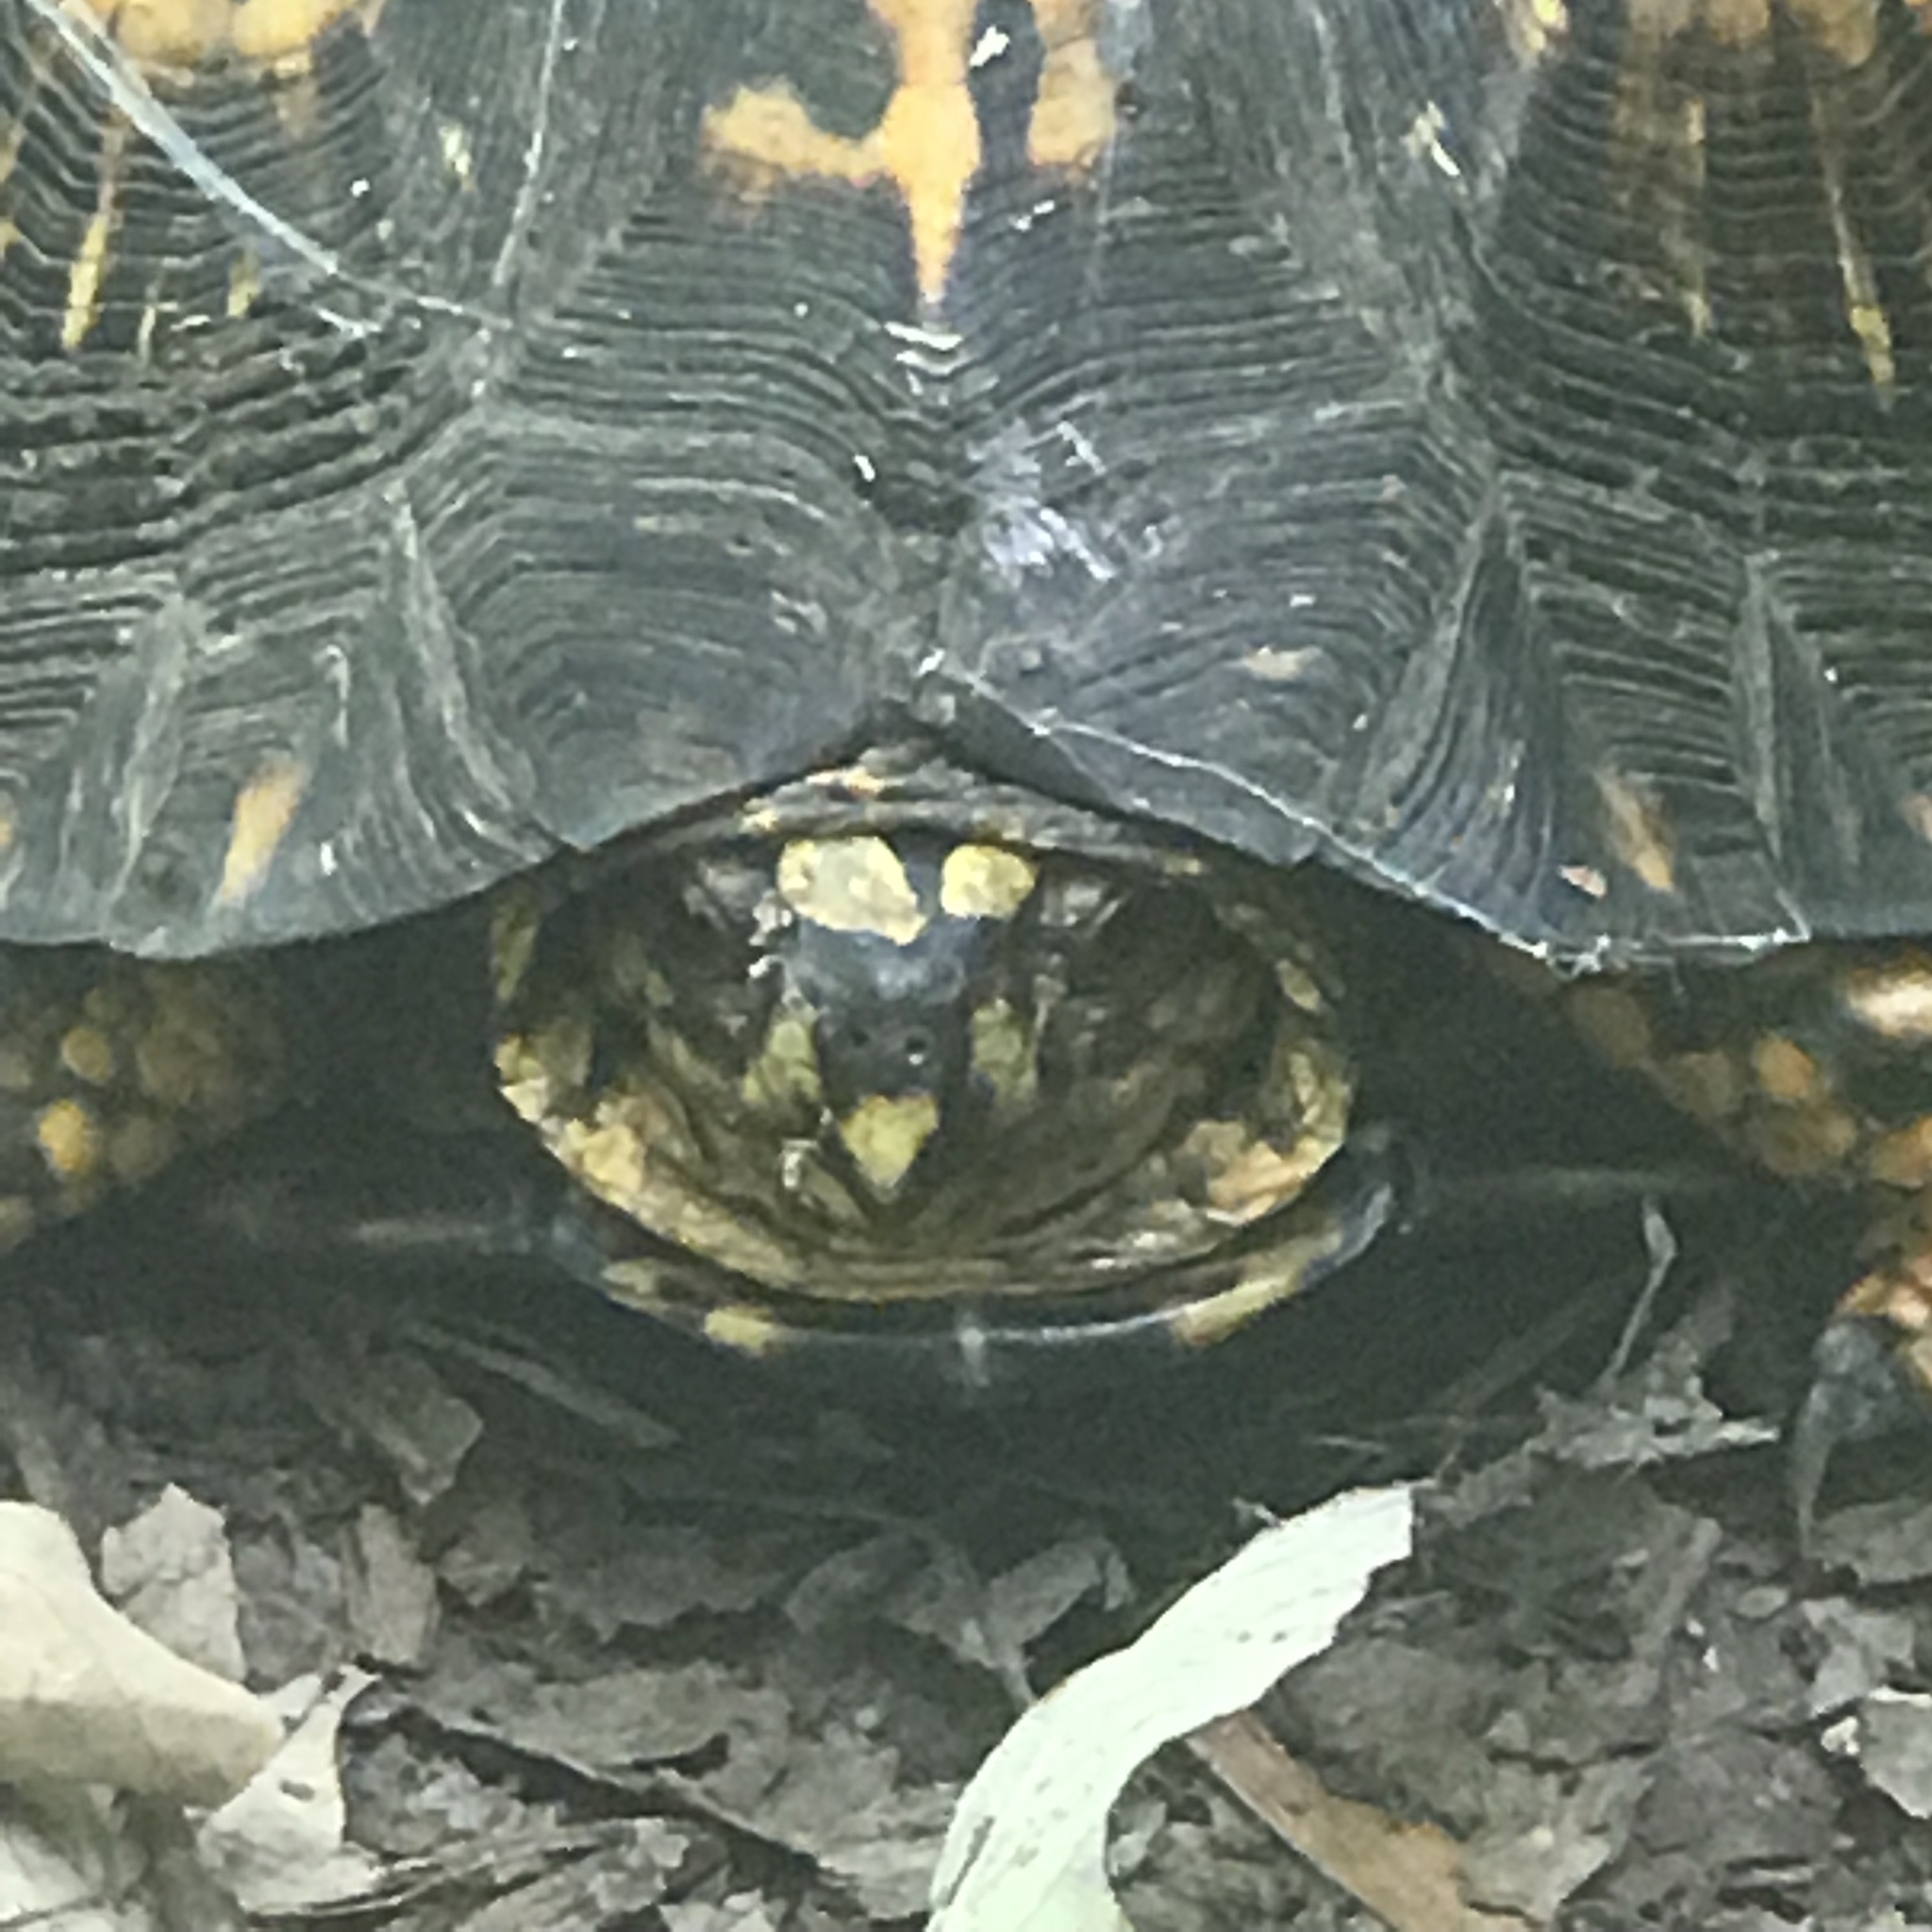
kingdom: Animalia
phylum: Chordata
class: Testudines
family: Emydidae
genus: Terrapene
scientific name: Terrapene carolina
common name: Common box turtle
